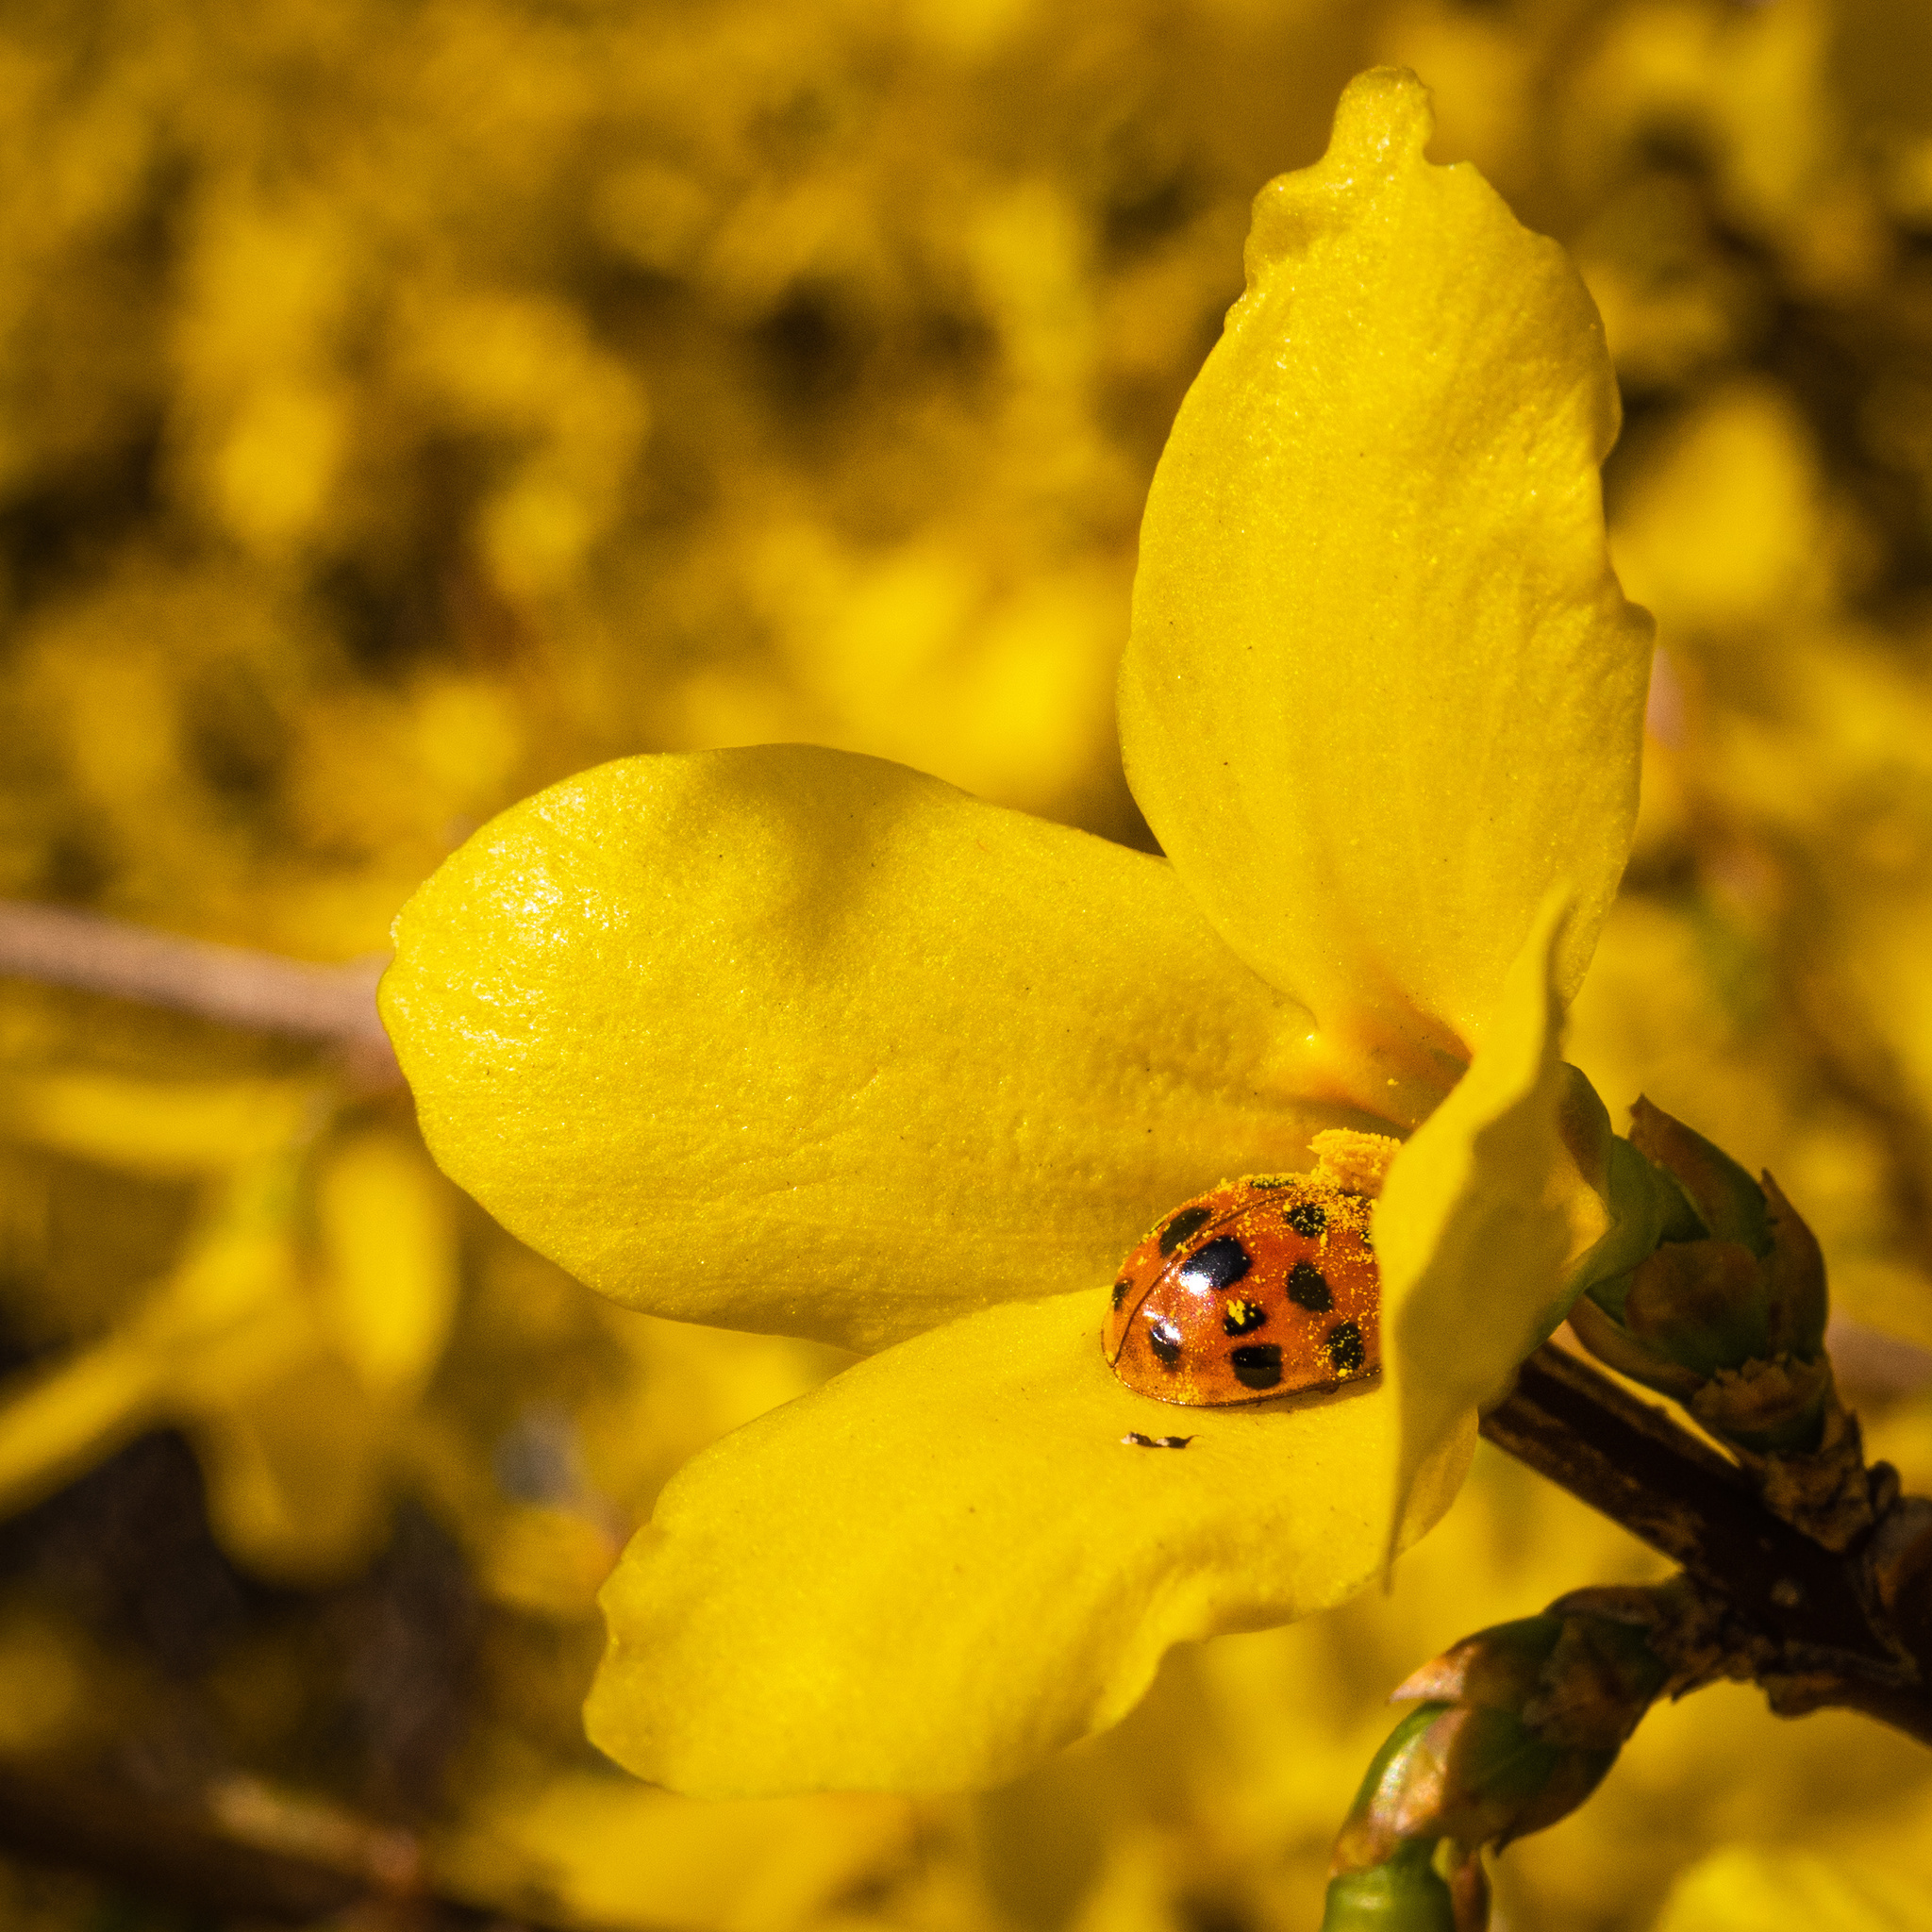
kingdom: Animalia
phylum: Arthropoda
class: Insecta
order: Coleoptera
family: Coccinellidae
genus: Harmonia
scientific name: Harmonia axyridis
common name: Harlequin ladybird
